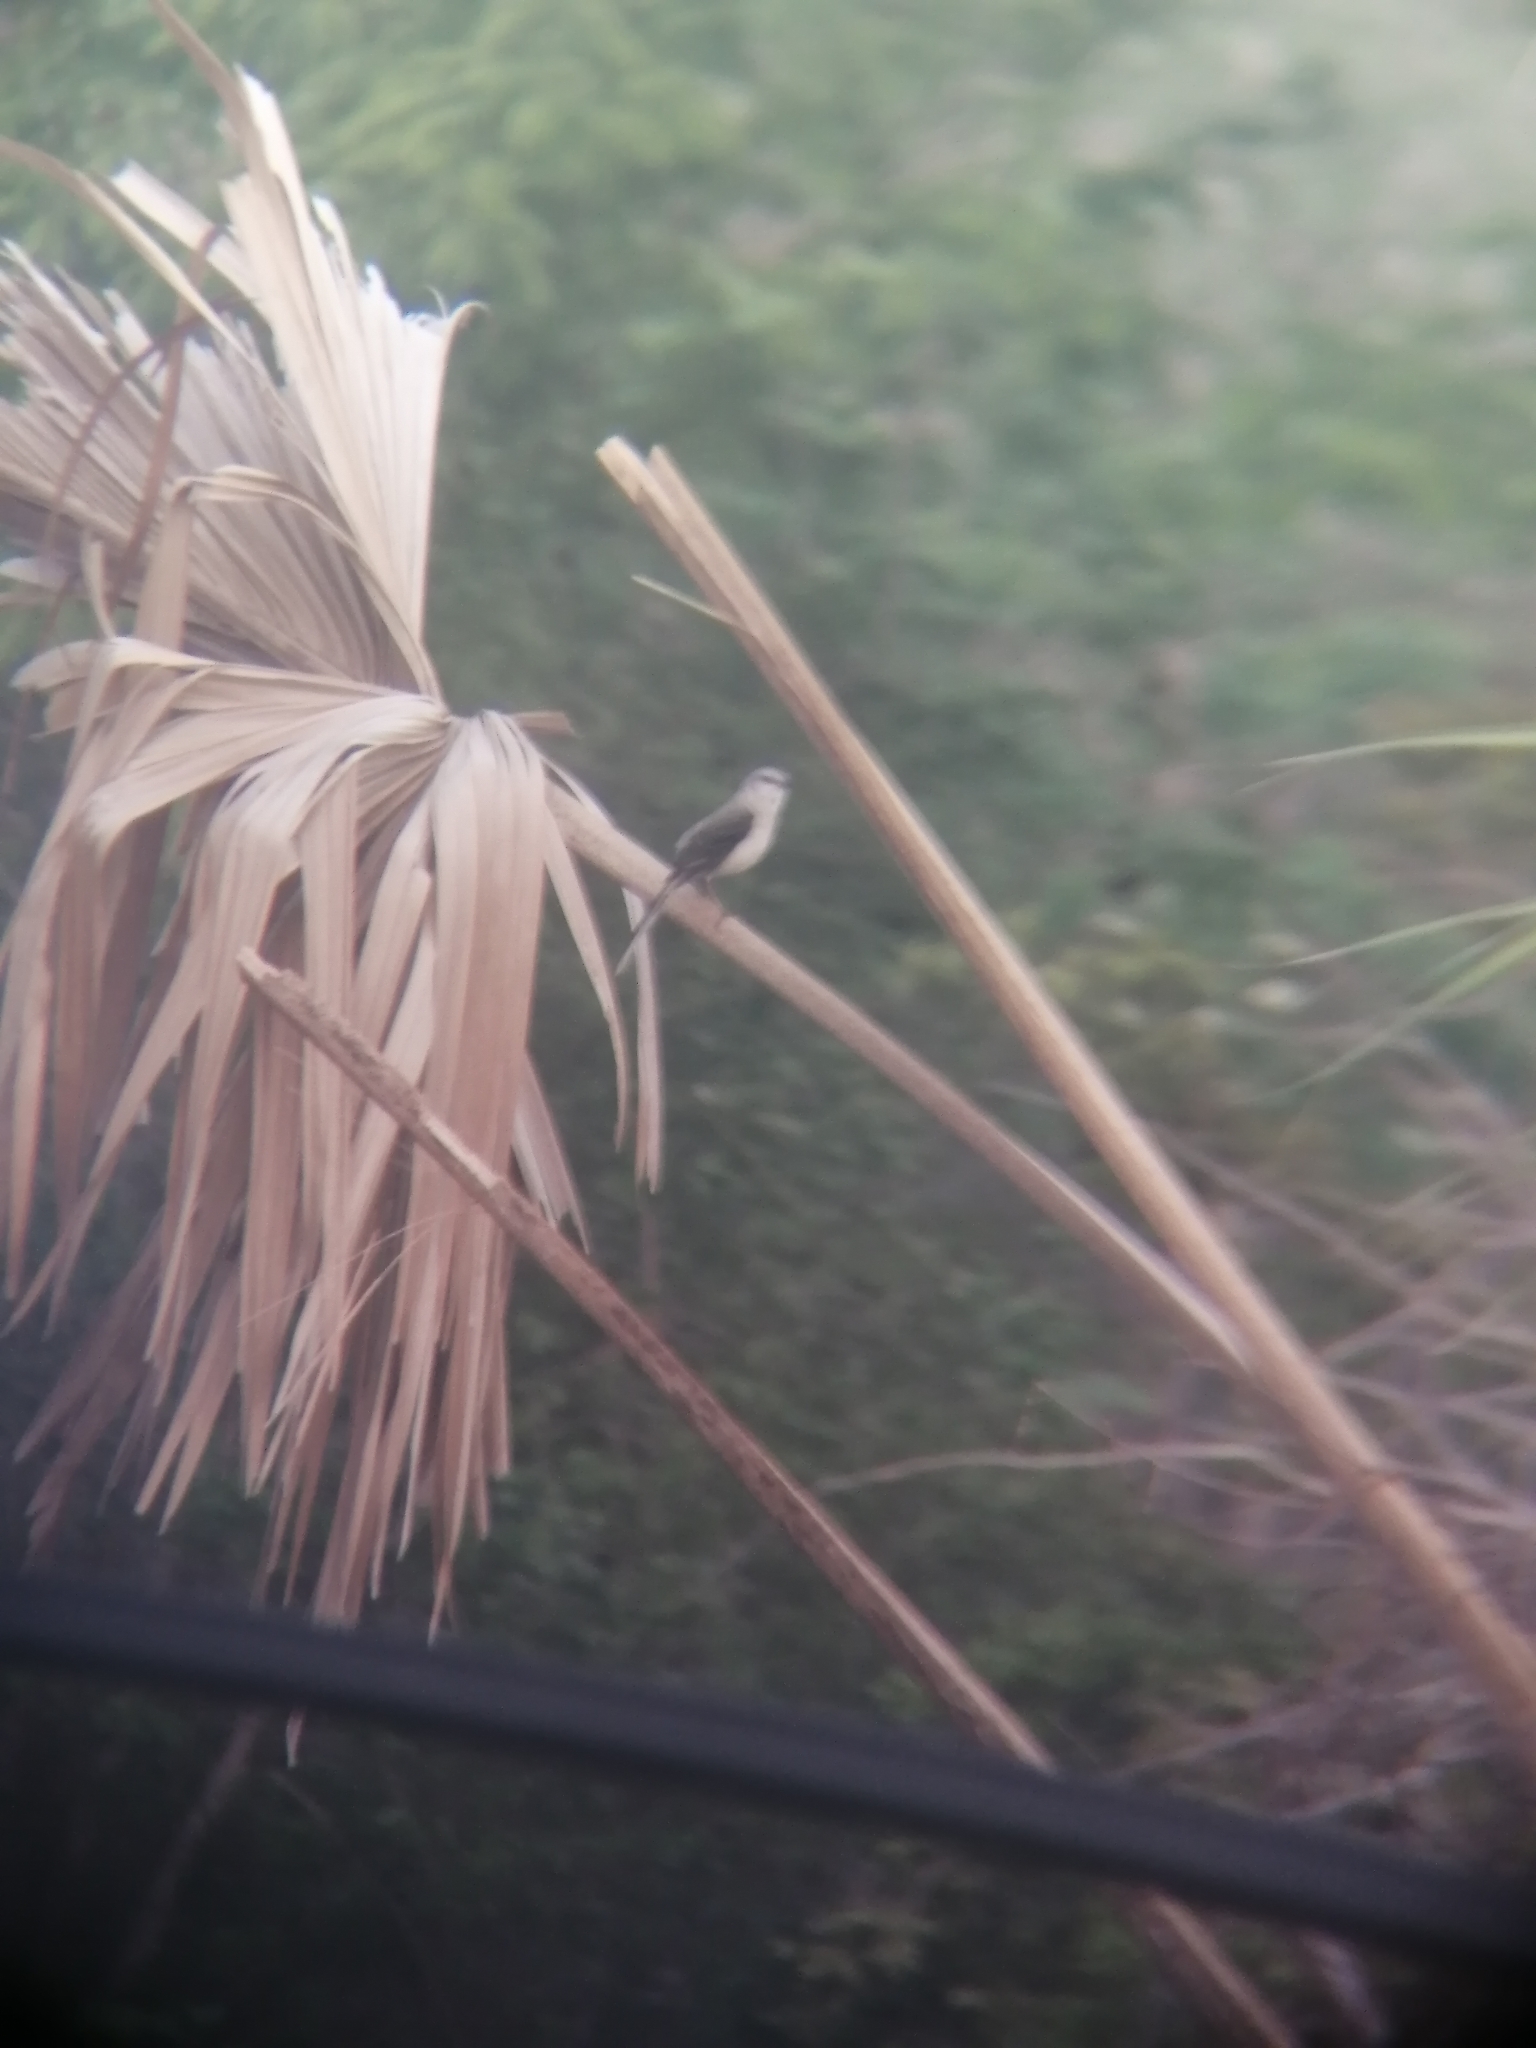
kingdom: Animalia
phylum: Chordata
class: Aves
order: Passeriformes
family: Mimidae
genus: Mimus
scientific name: Mimus gilvus
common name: Tropical mockingbird
